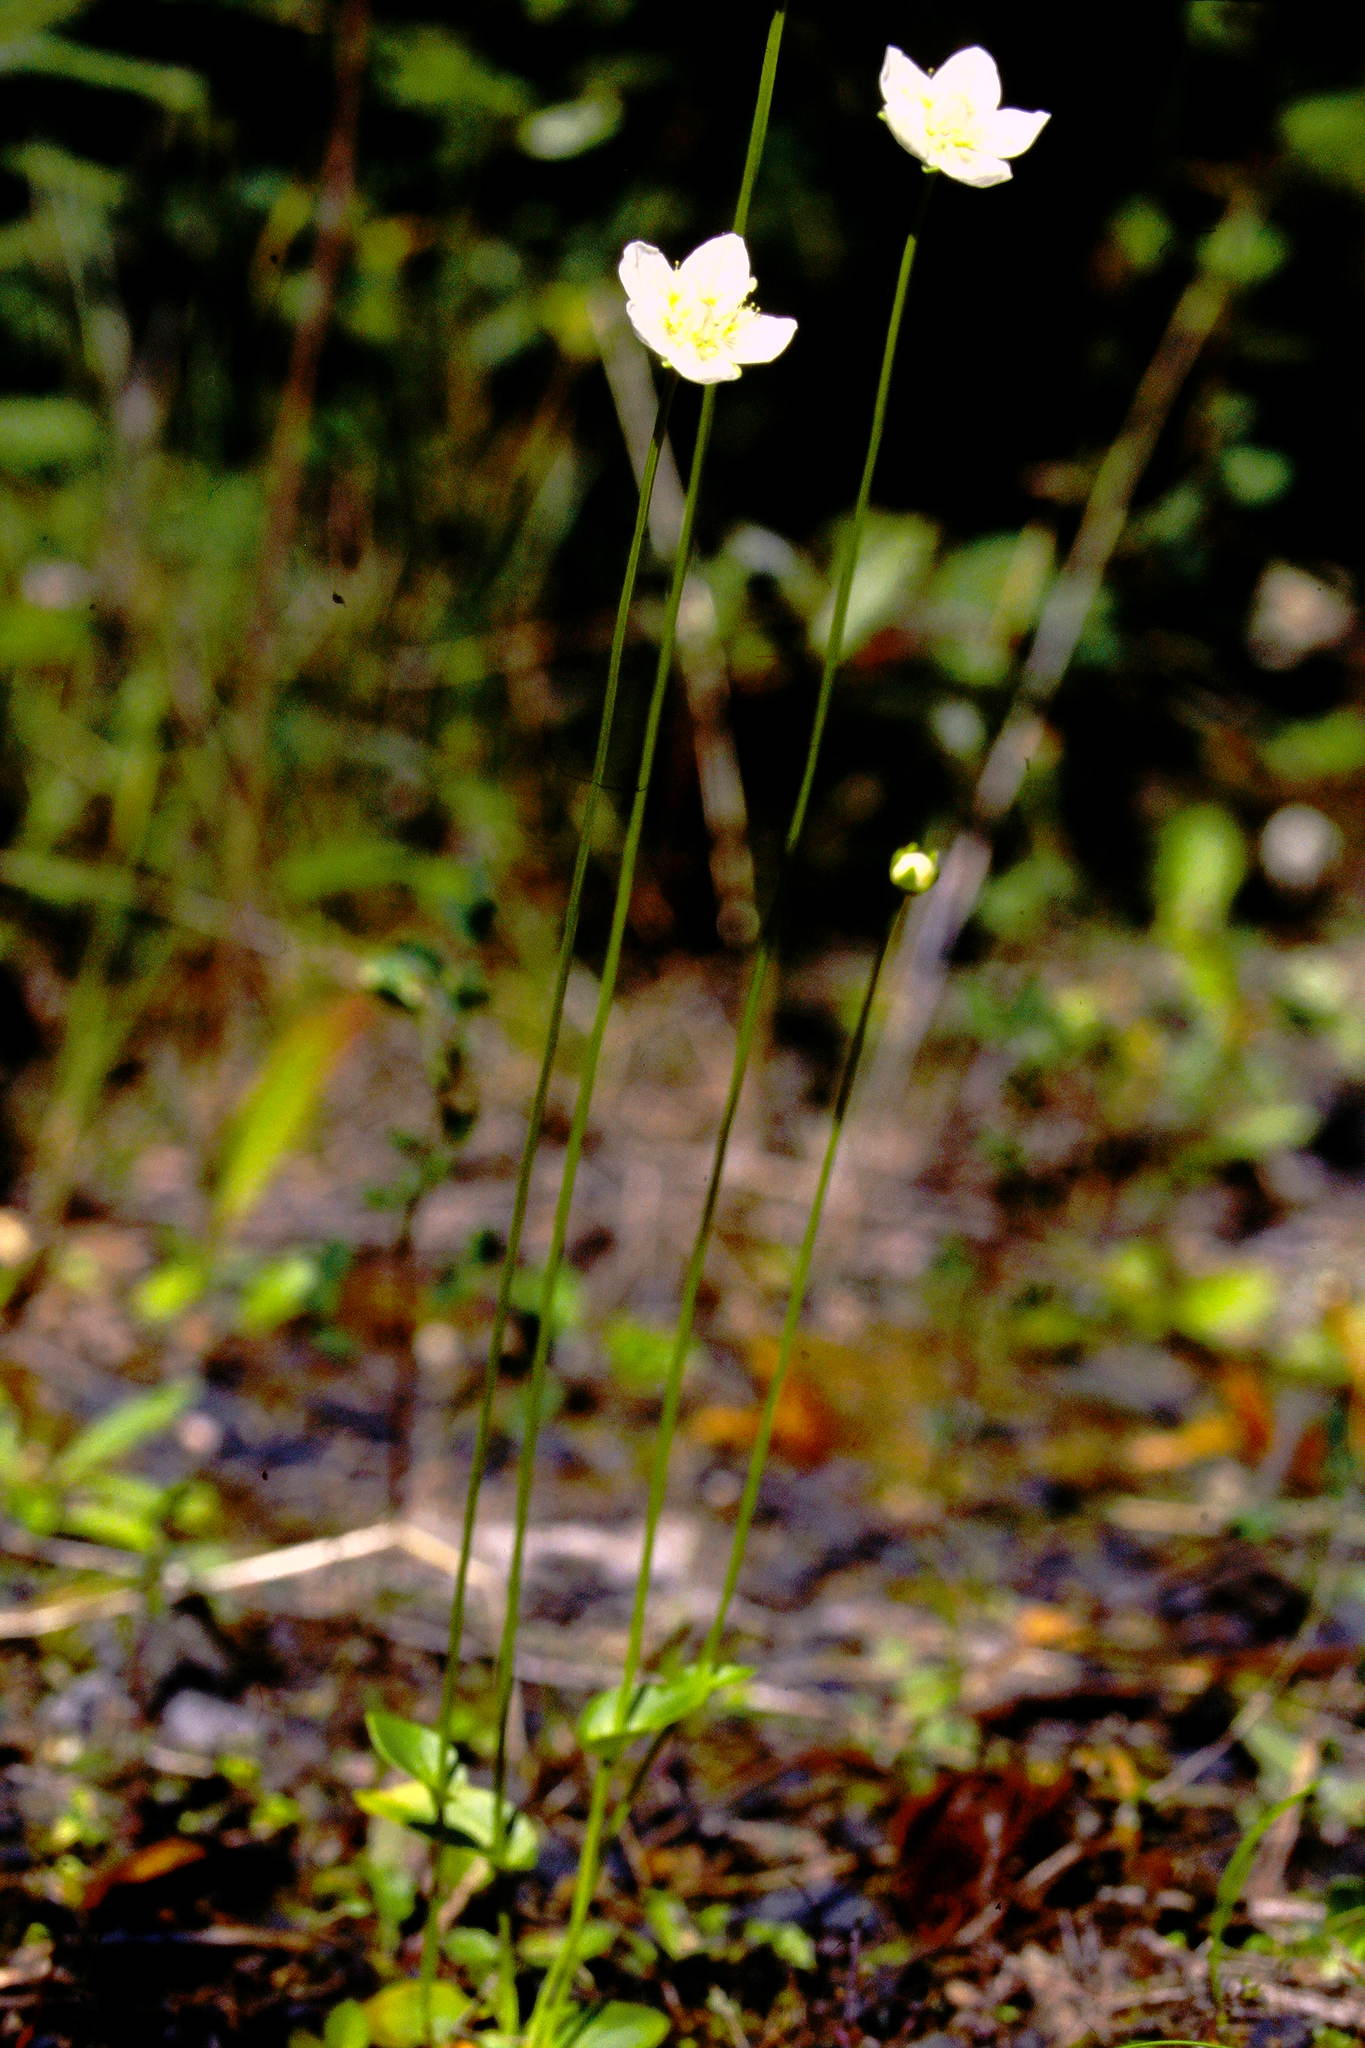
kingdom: Plantae
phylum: Tracheophyta
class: Magnoliopsida
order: Celastrales
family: Parnassiaceae
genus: Parnassia
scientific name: Parnassia palustris
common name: Grass-of-parnassus
